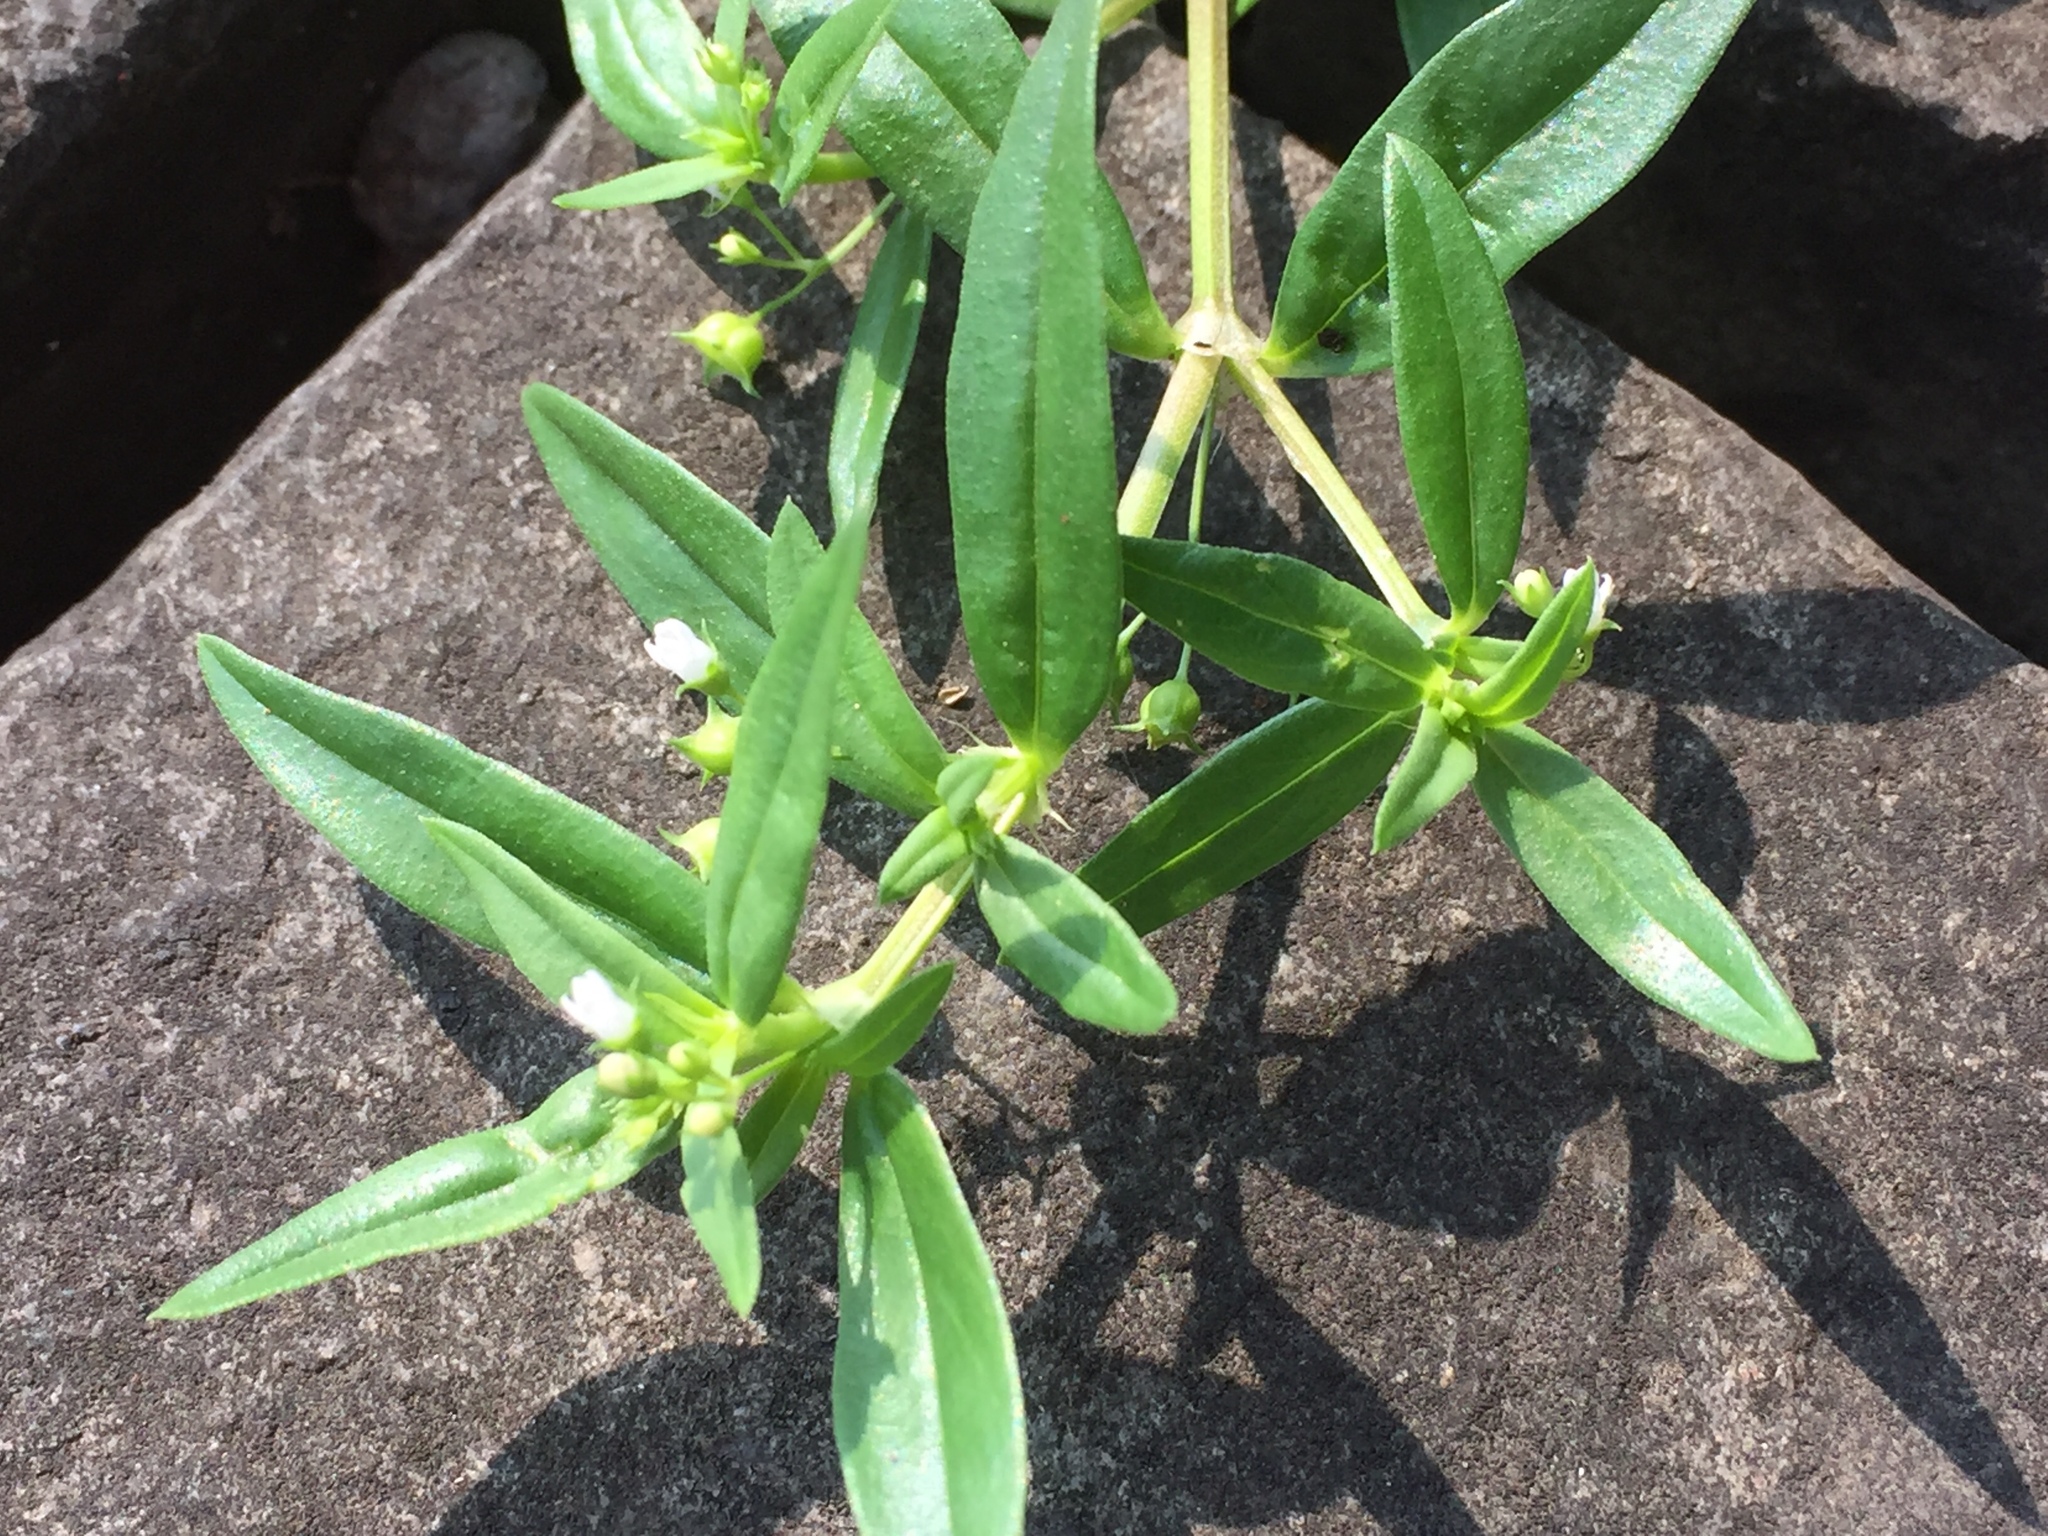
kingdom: Plantae
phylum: Tracheophyta
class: Magnoliopsida
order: Gentianales
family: Rubiaceae
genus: Oldenlandia
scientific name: Oldenlandia corymbosa
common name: Flat-top mille graines
